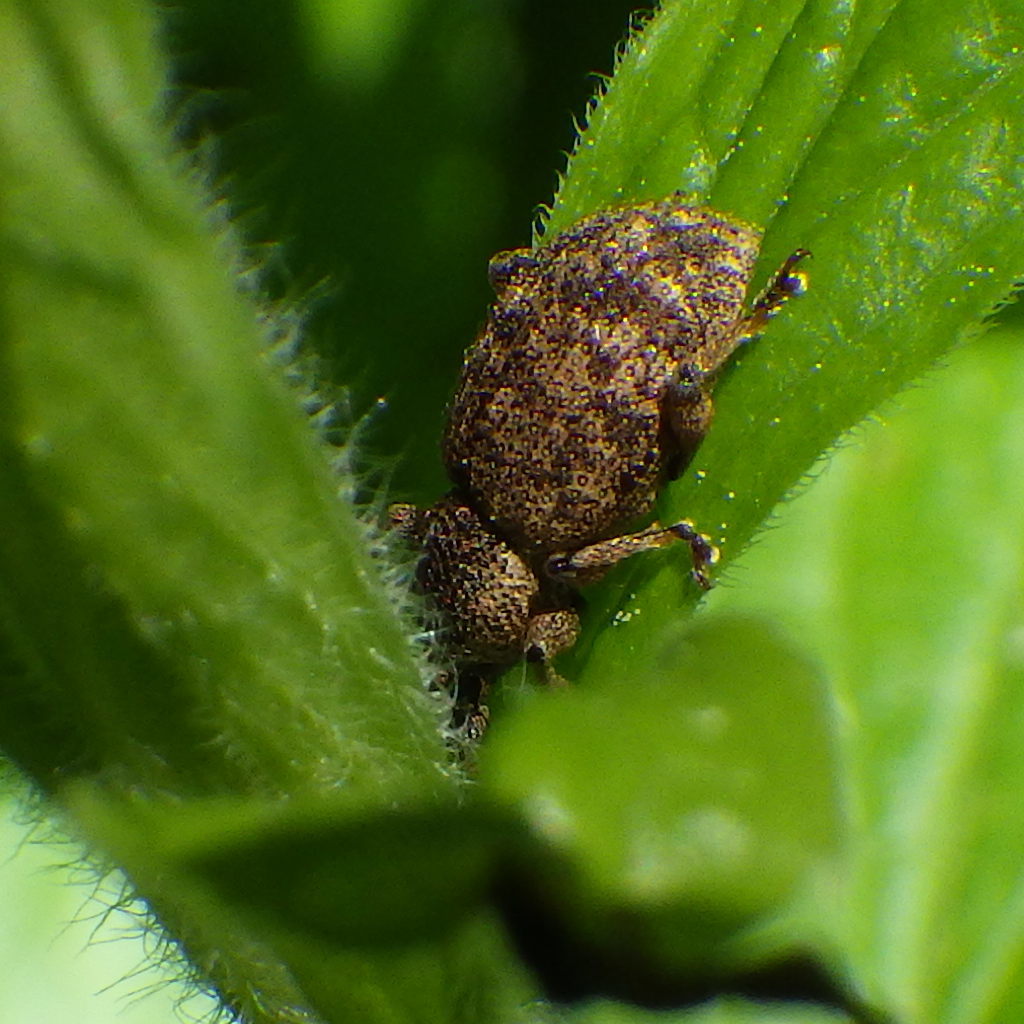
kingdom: Animalia
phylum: Arthropoda
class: Insecta
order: Coleoptera
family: Curculionidae
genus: Otiorhynchus
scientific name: Otiorhynchus singularis
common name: Clay-coloured weevil
